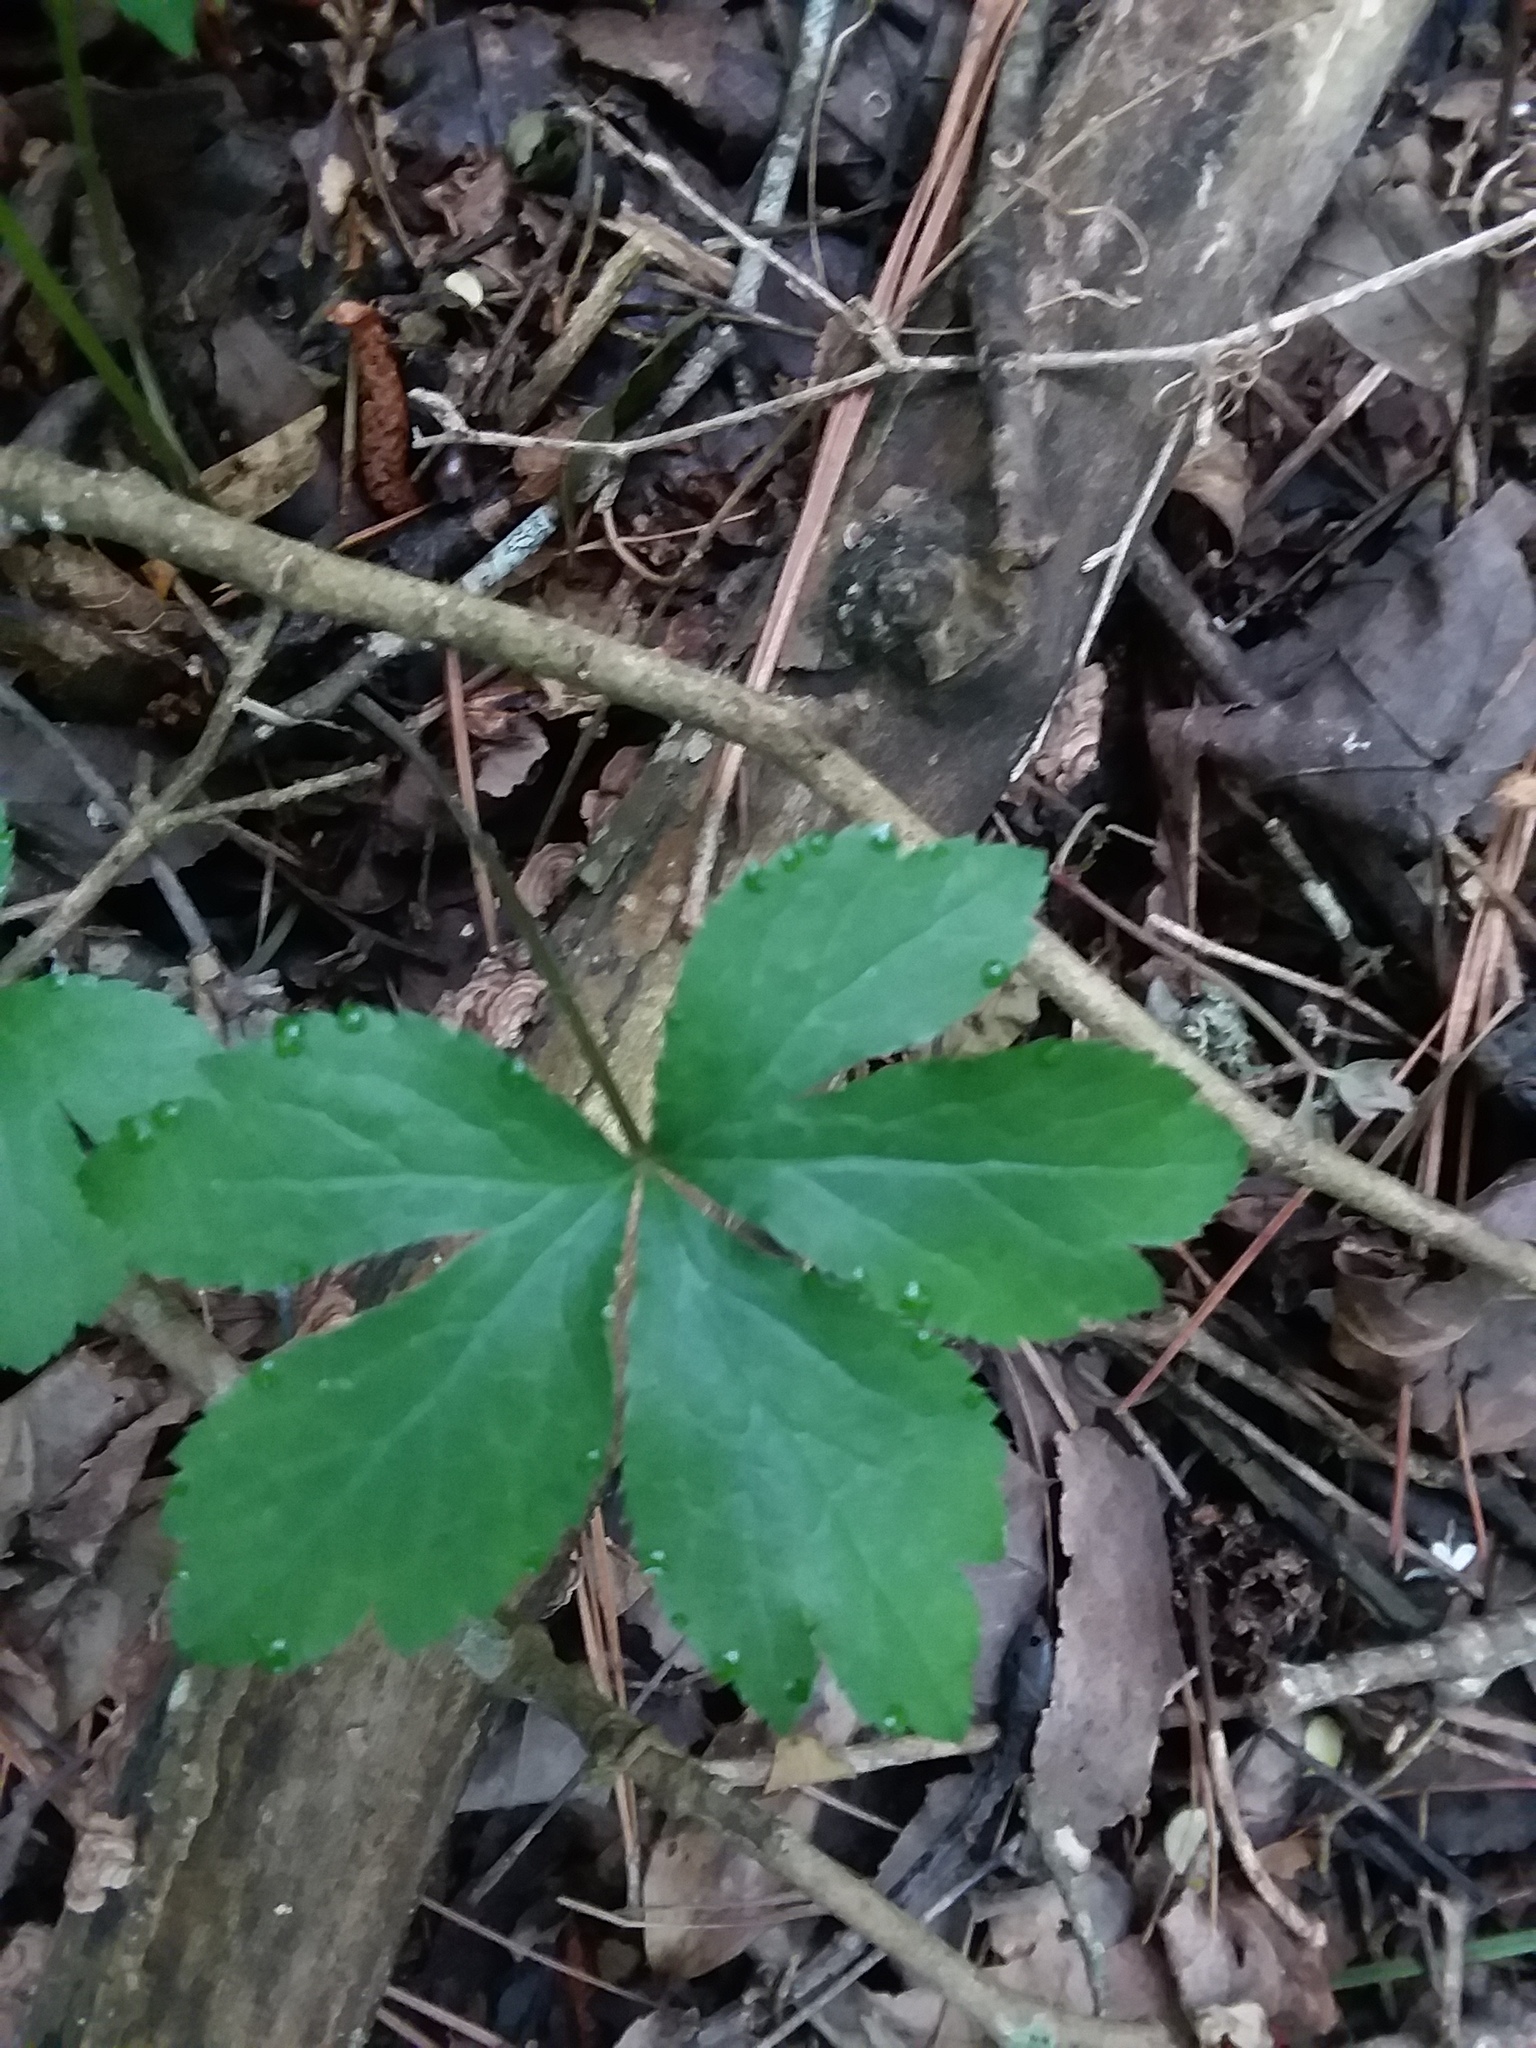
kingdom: Plantae
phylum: Tracheophyta
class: Magnoliopsida
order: Apiales
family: Apiaceae
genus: Sanicula
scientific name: Sanicula canadensis
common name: Canada sanicle
